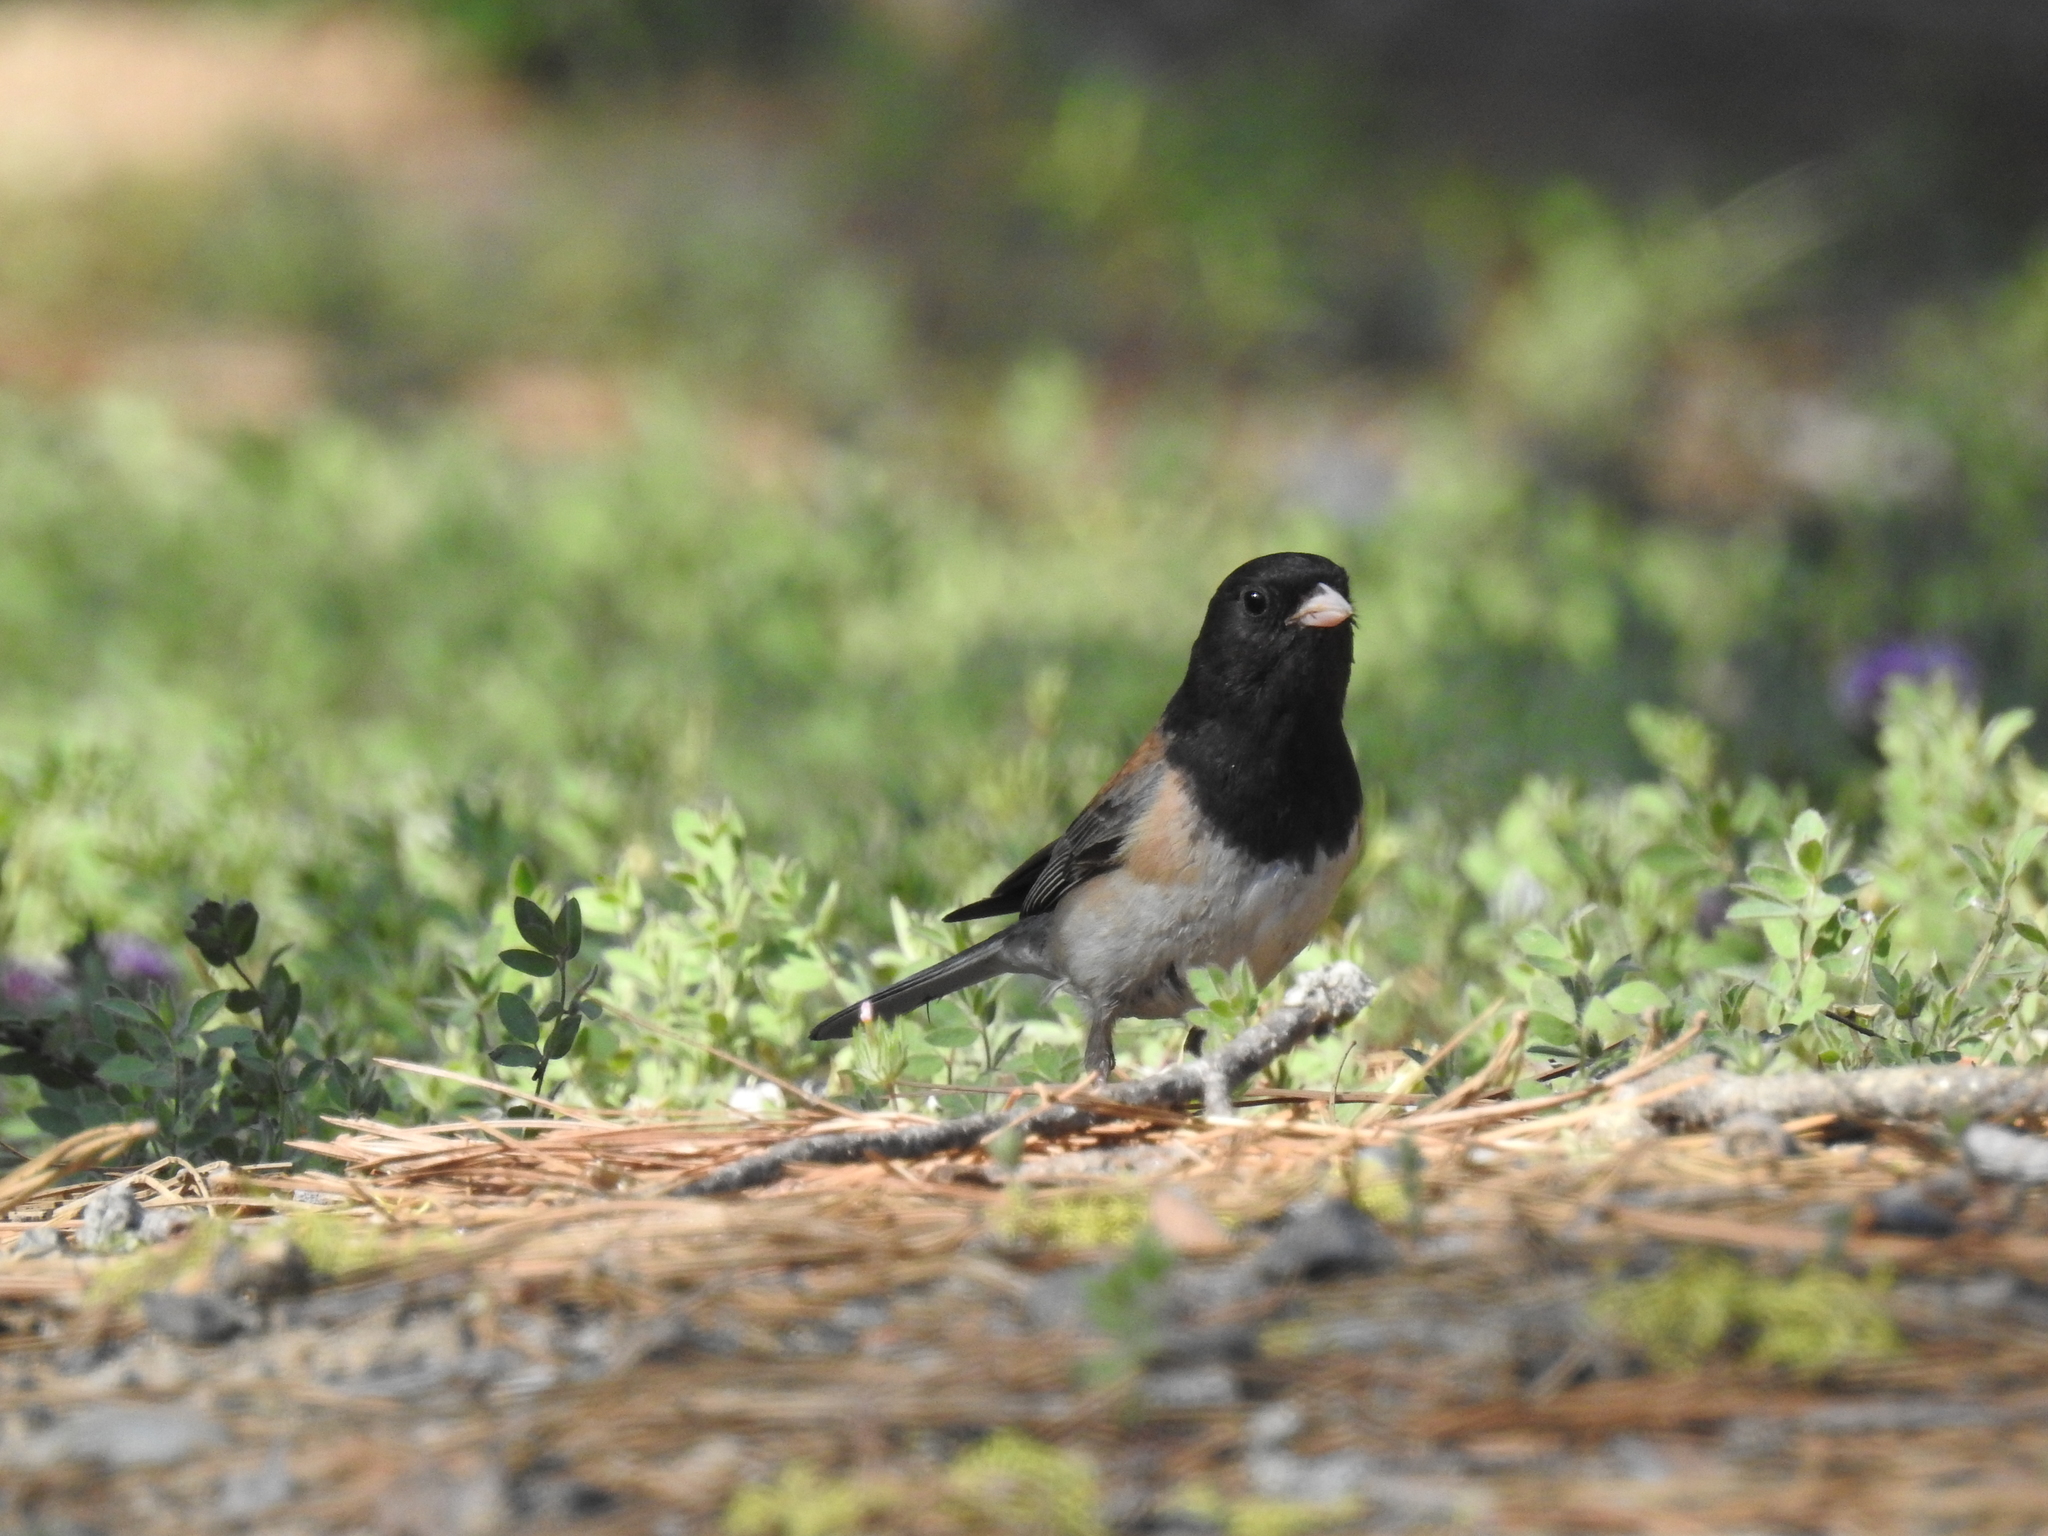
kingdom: Animalia
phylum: Chordata
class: Aves
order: Passeriformes
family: Passerellidae
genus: Junco
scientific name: Junco hyemalis
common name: Dark-eyed junco
